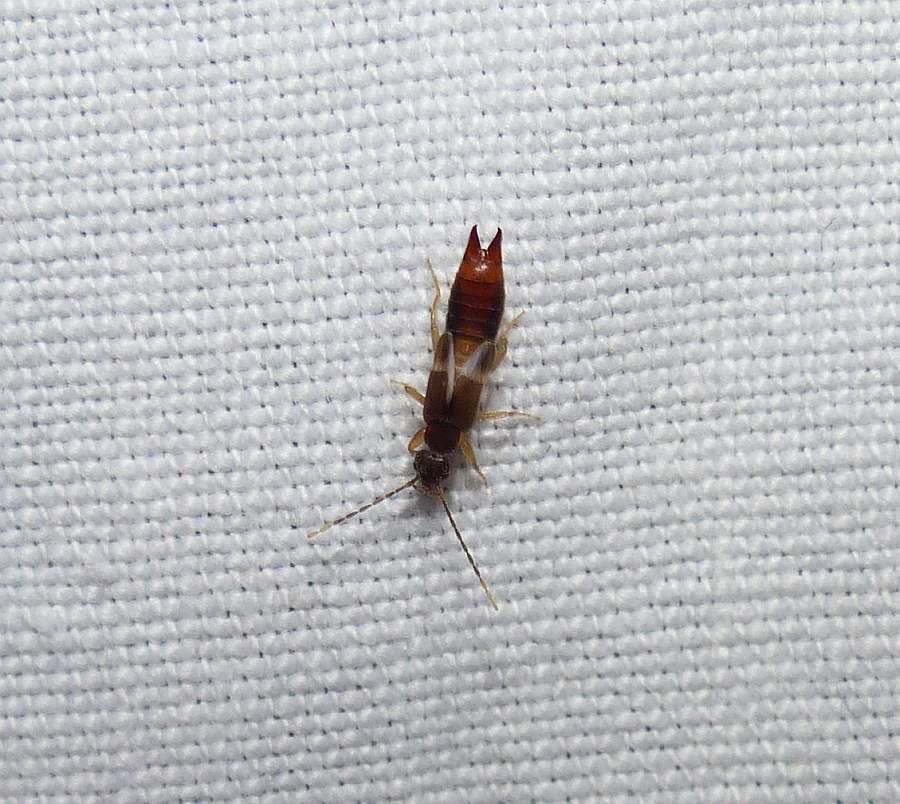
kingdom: Animalia
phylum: Arthropoda
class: Insecta
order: Dermaptera
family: Spongiphoridae
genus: Labia
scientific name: Labia minor
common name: Lesser earwig
